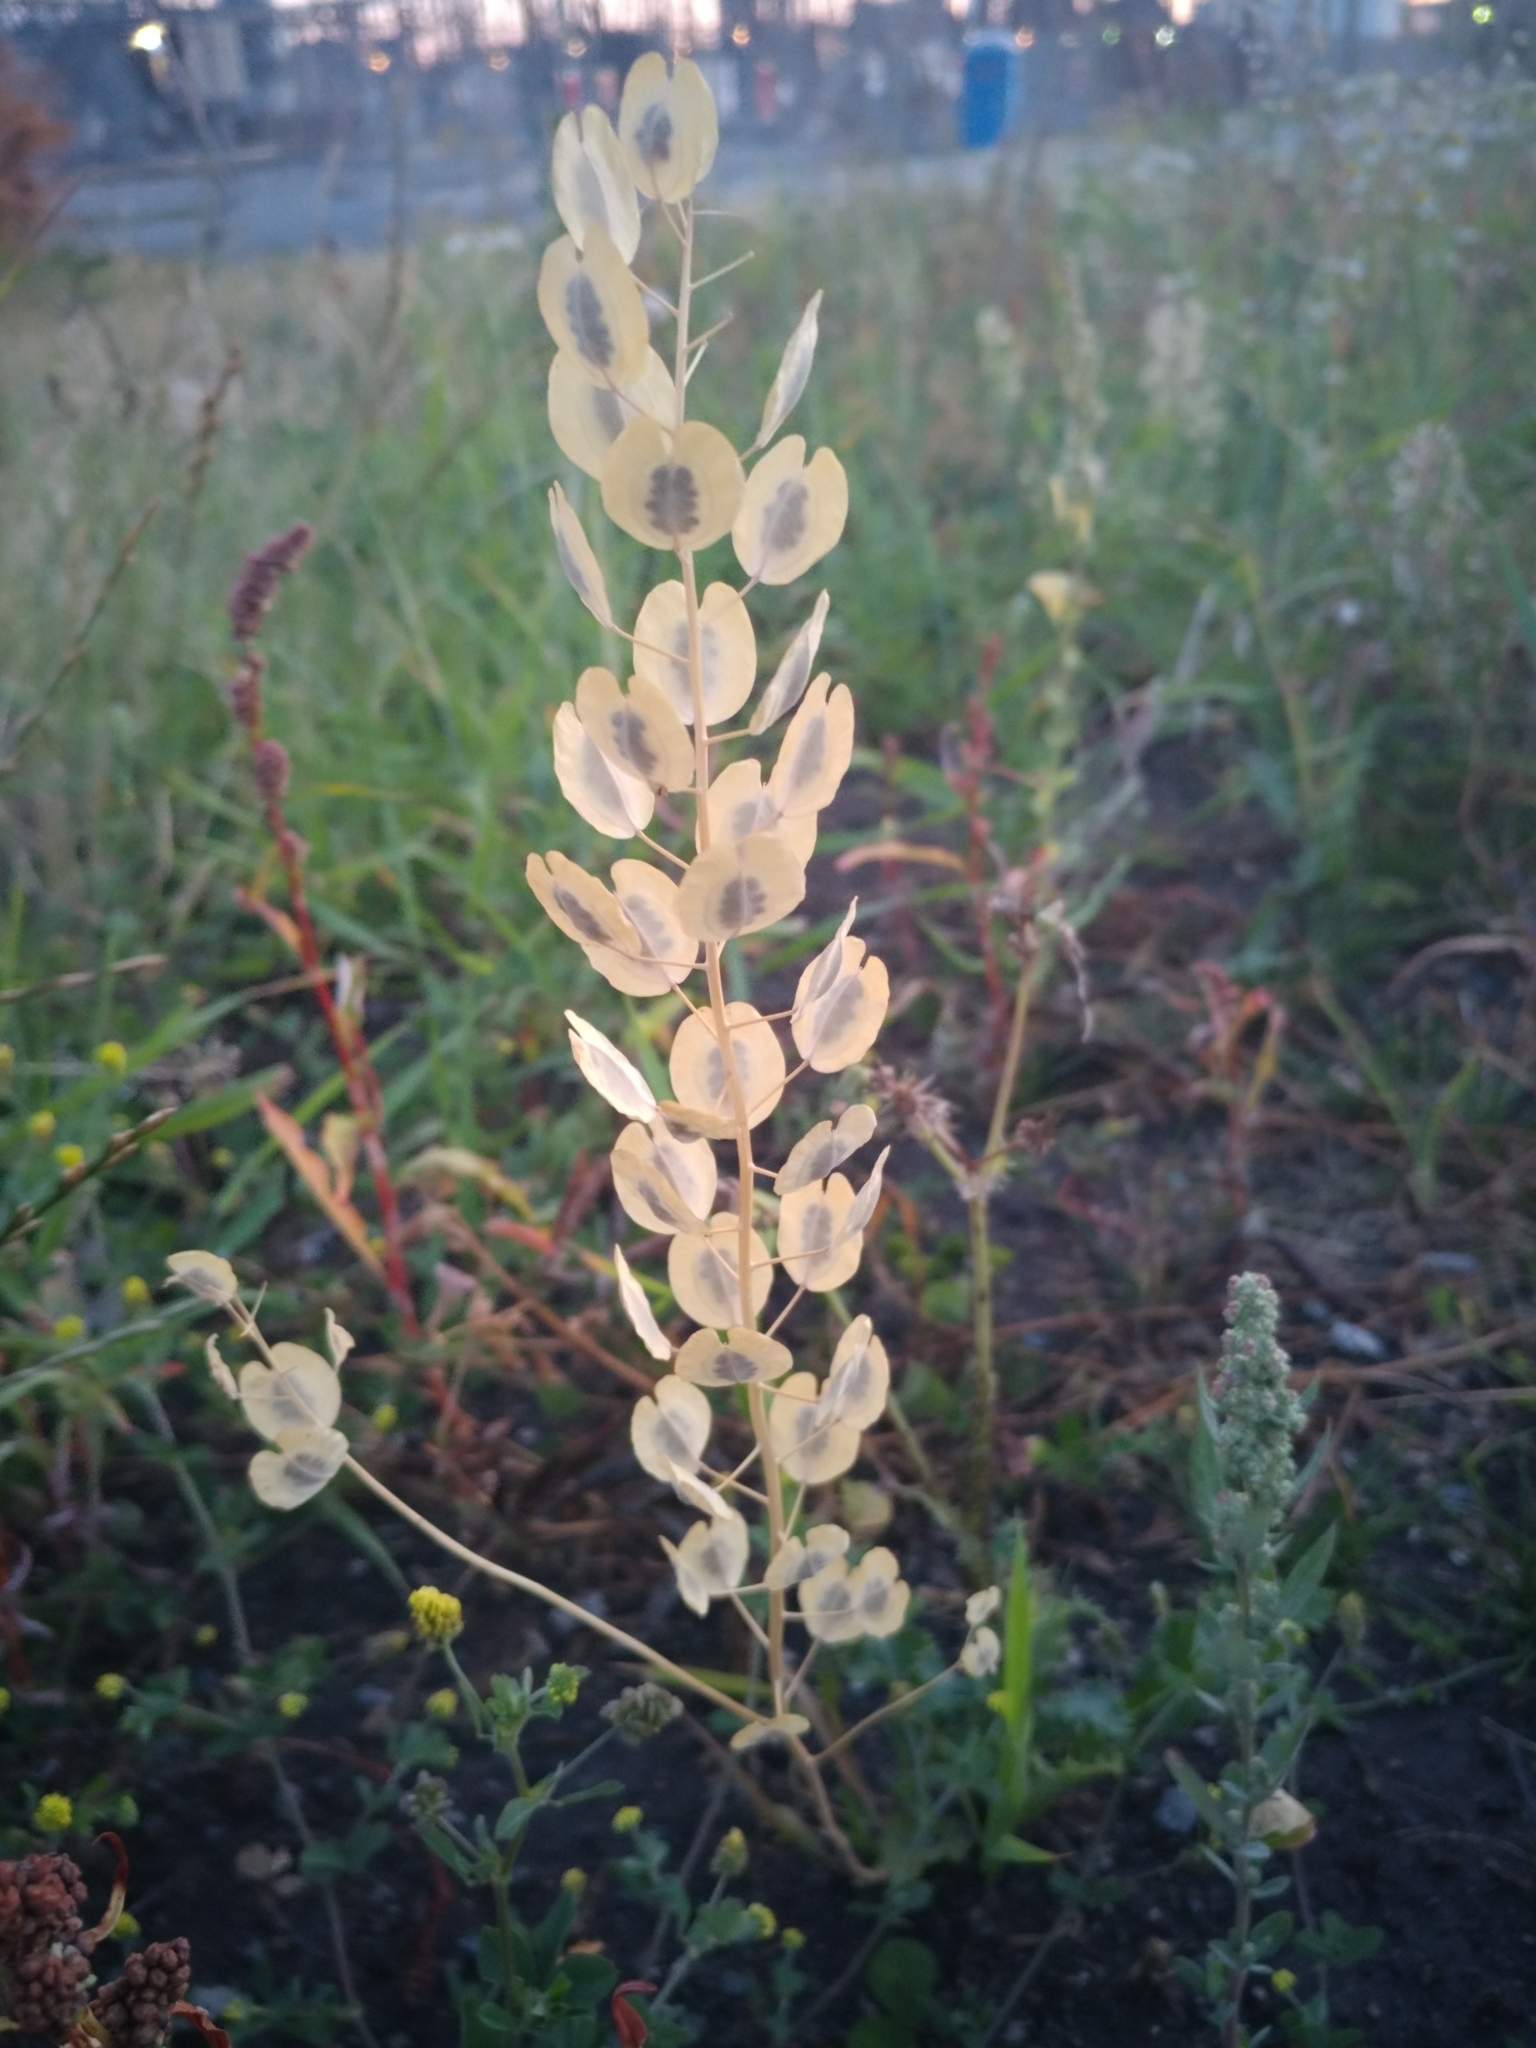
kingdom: Plantae
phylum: Tracheophyta
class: Magnoliopsida
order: Brassicales
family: Brassicaceae
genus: Thlaspi
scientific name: Thlaspi arvense
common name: Field pennycress
